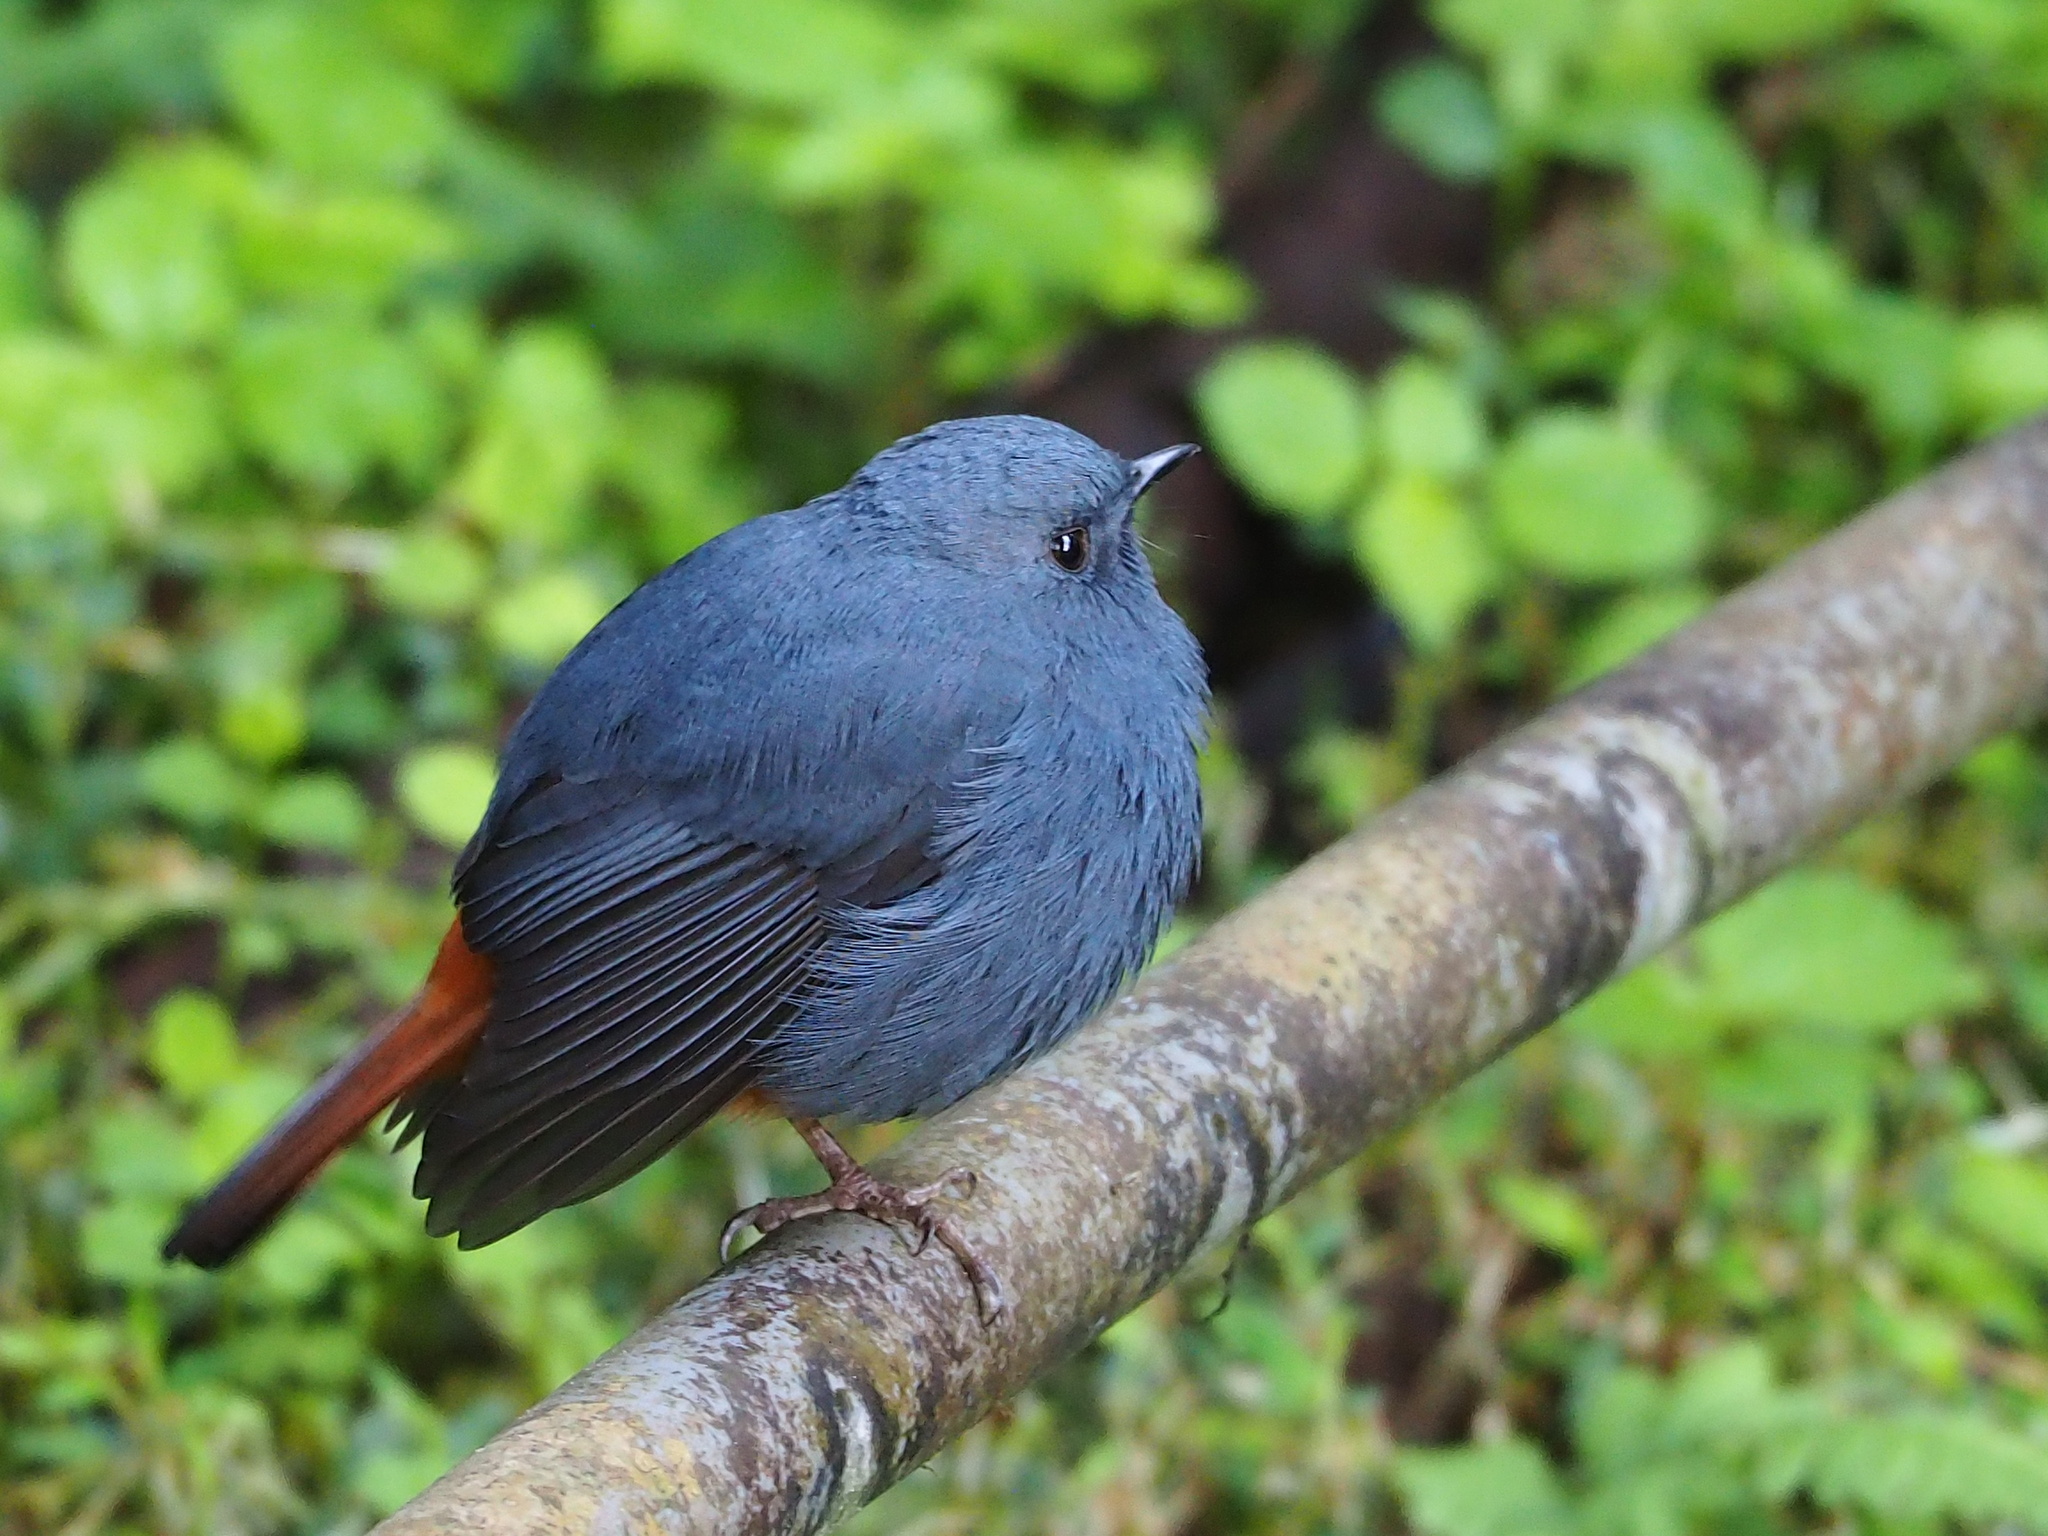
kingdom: Animalia
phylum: Chordata
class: Aves
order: Passeriformes
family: Muscicapidae
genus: Rhyacornis
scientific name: Rhyacornis fuliginosa
